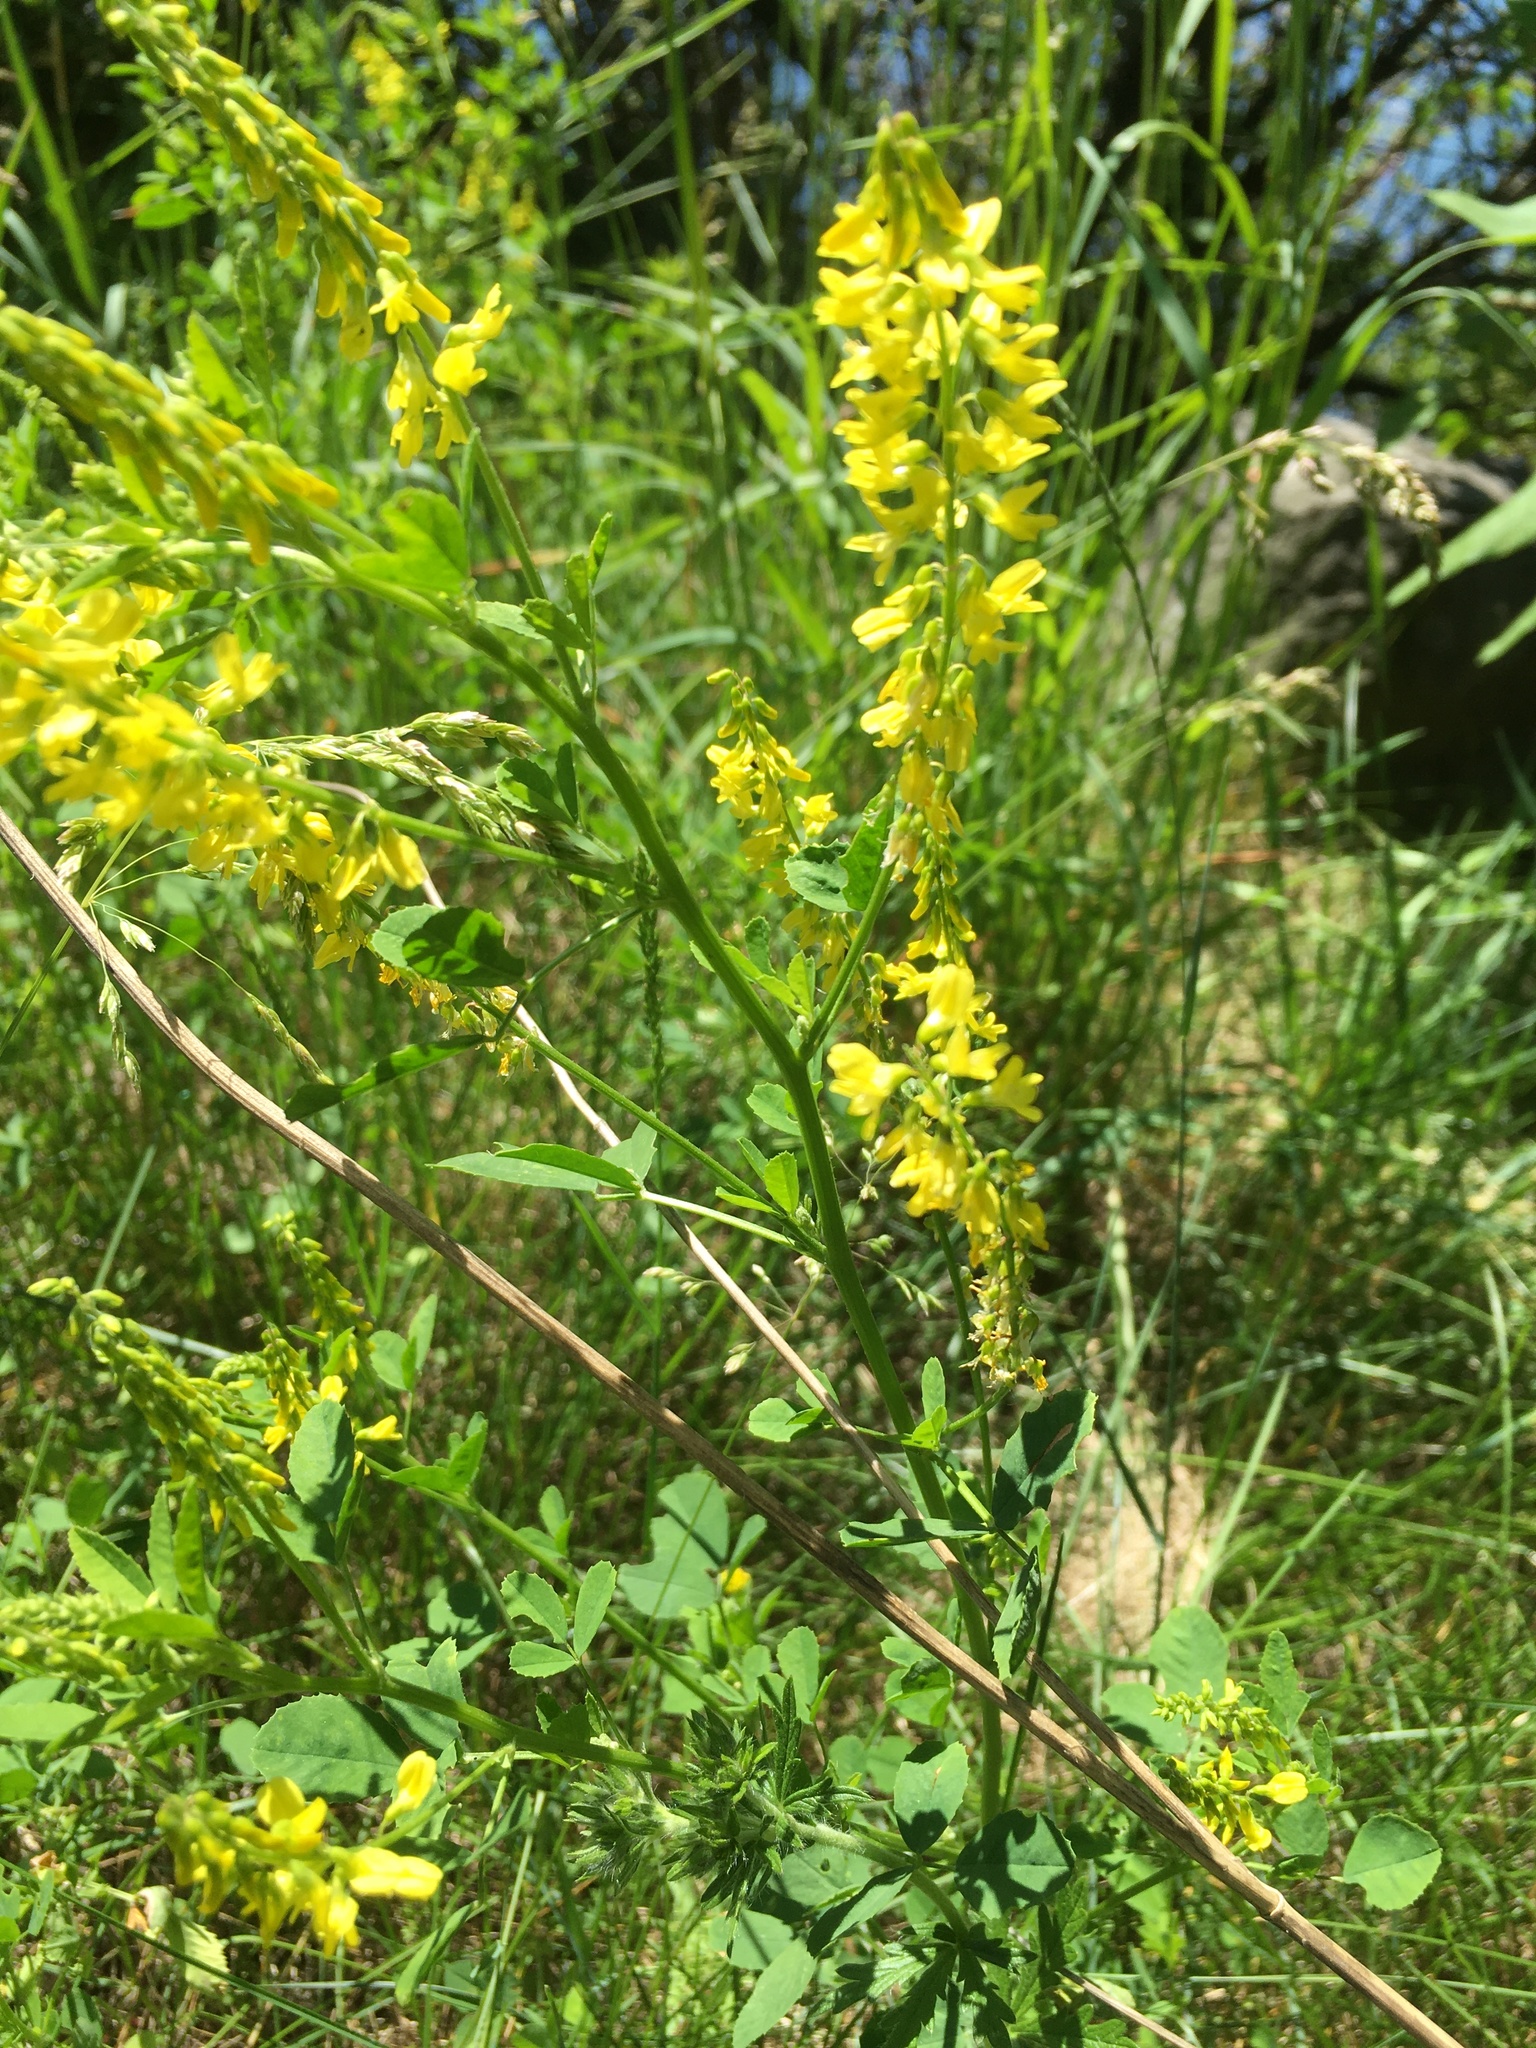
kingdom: Plantae
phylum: Tracheophyta
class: Magnoliopsida
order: Fabales
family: Fabaceae
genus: Melilotus
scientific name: Melilotus officinalis
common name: Sweetclover
